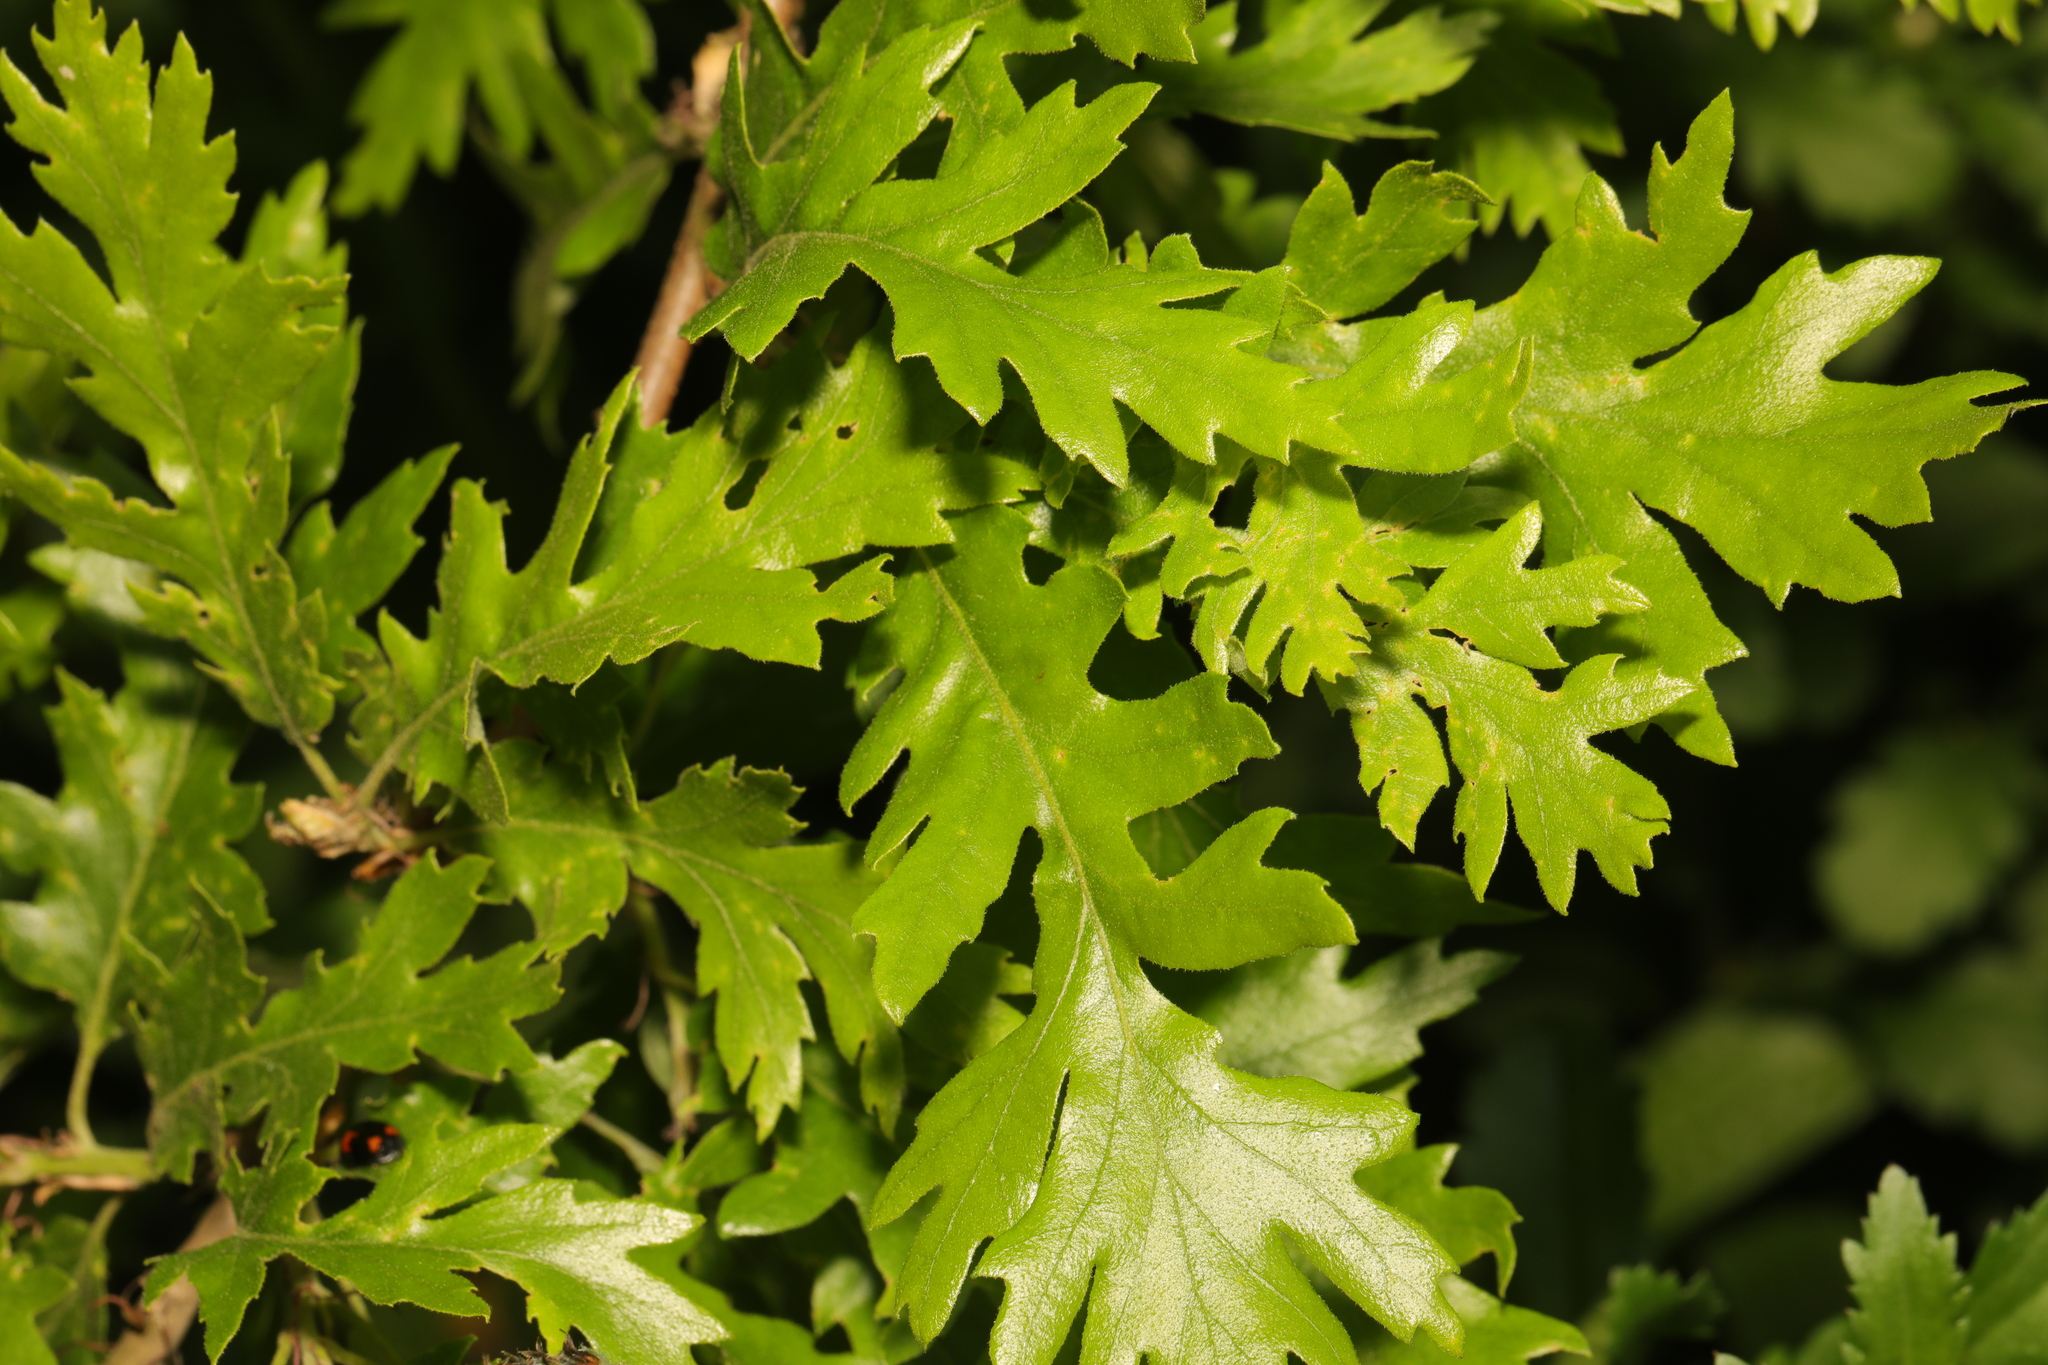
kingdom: Plantae
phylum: Tracheophyta
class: Magnoliopsida
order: Fagales
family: Fagaceae
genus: Quercus
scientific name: Quercus cerris
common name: Turkey oak
